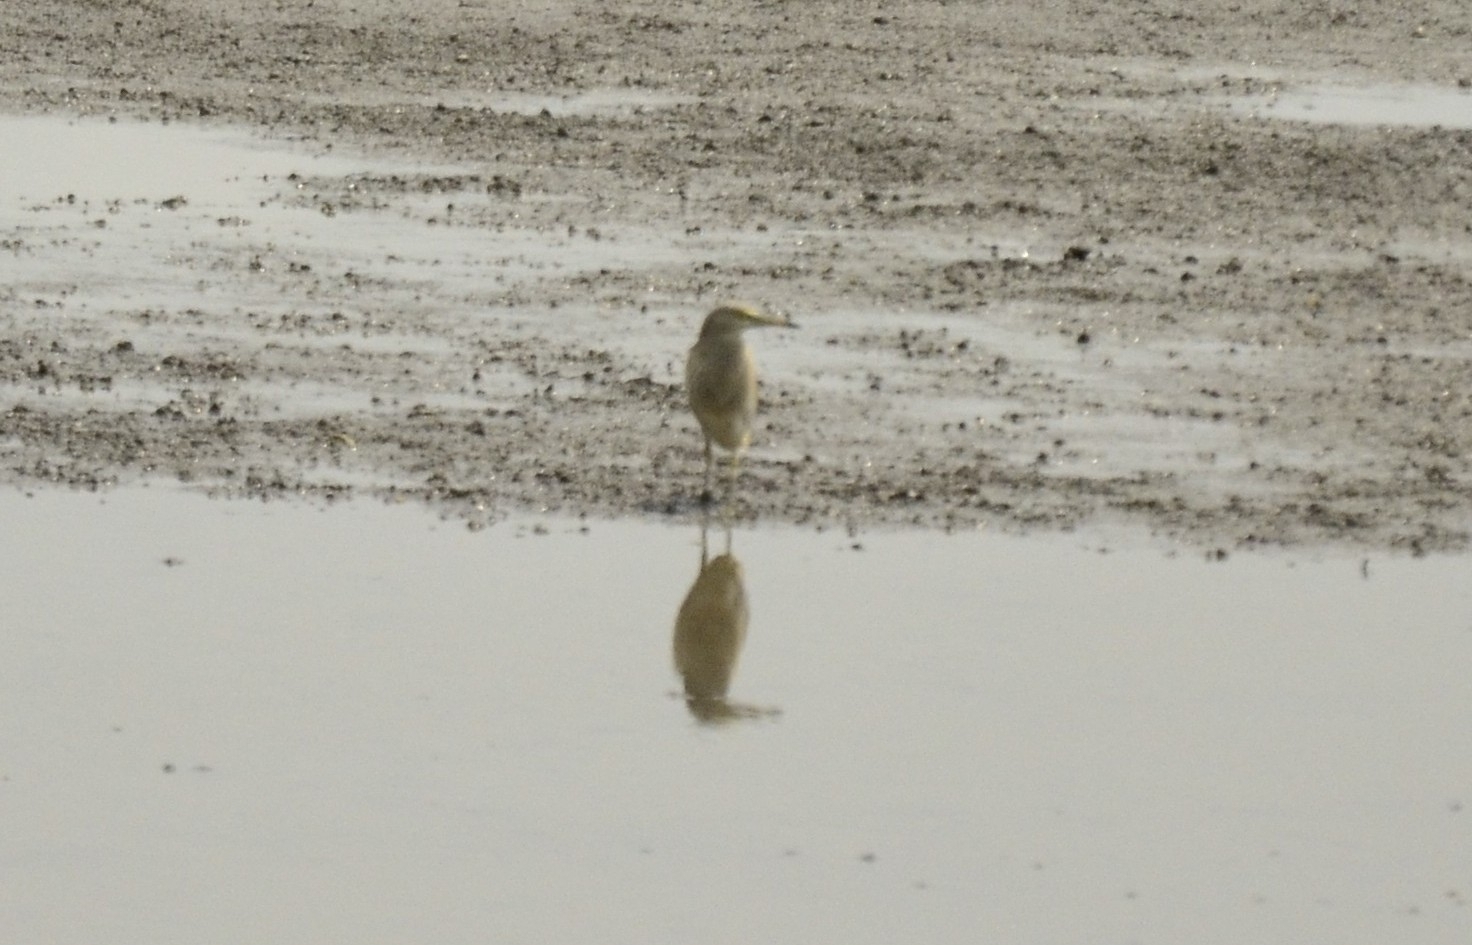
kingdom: Animalia
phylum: Chordata
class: Aves
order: Pelecaniformes
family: Ardeidae
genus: Ardeola
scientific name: Ardeola grayii
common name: Indian pond heron
